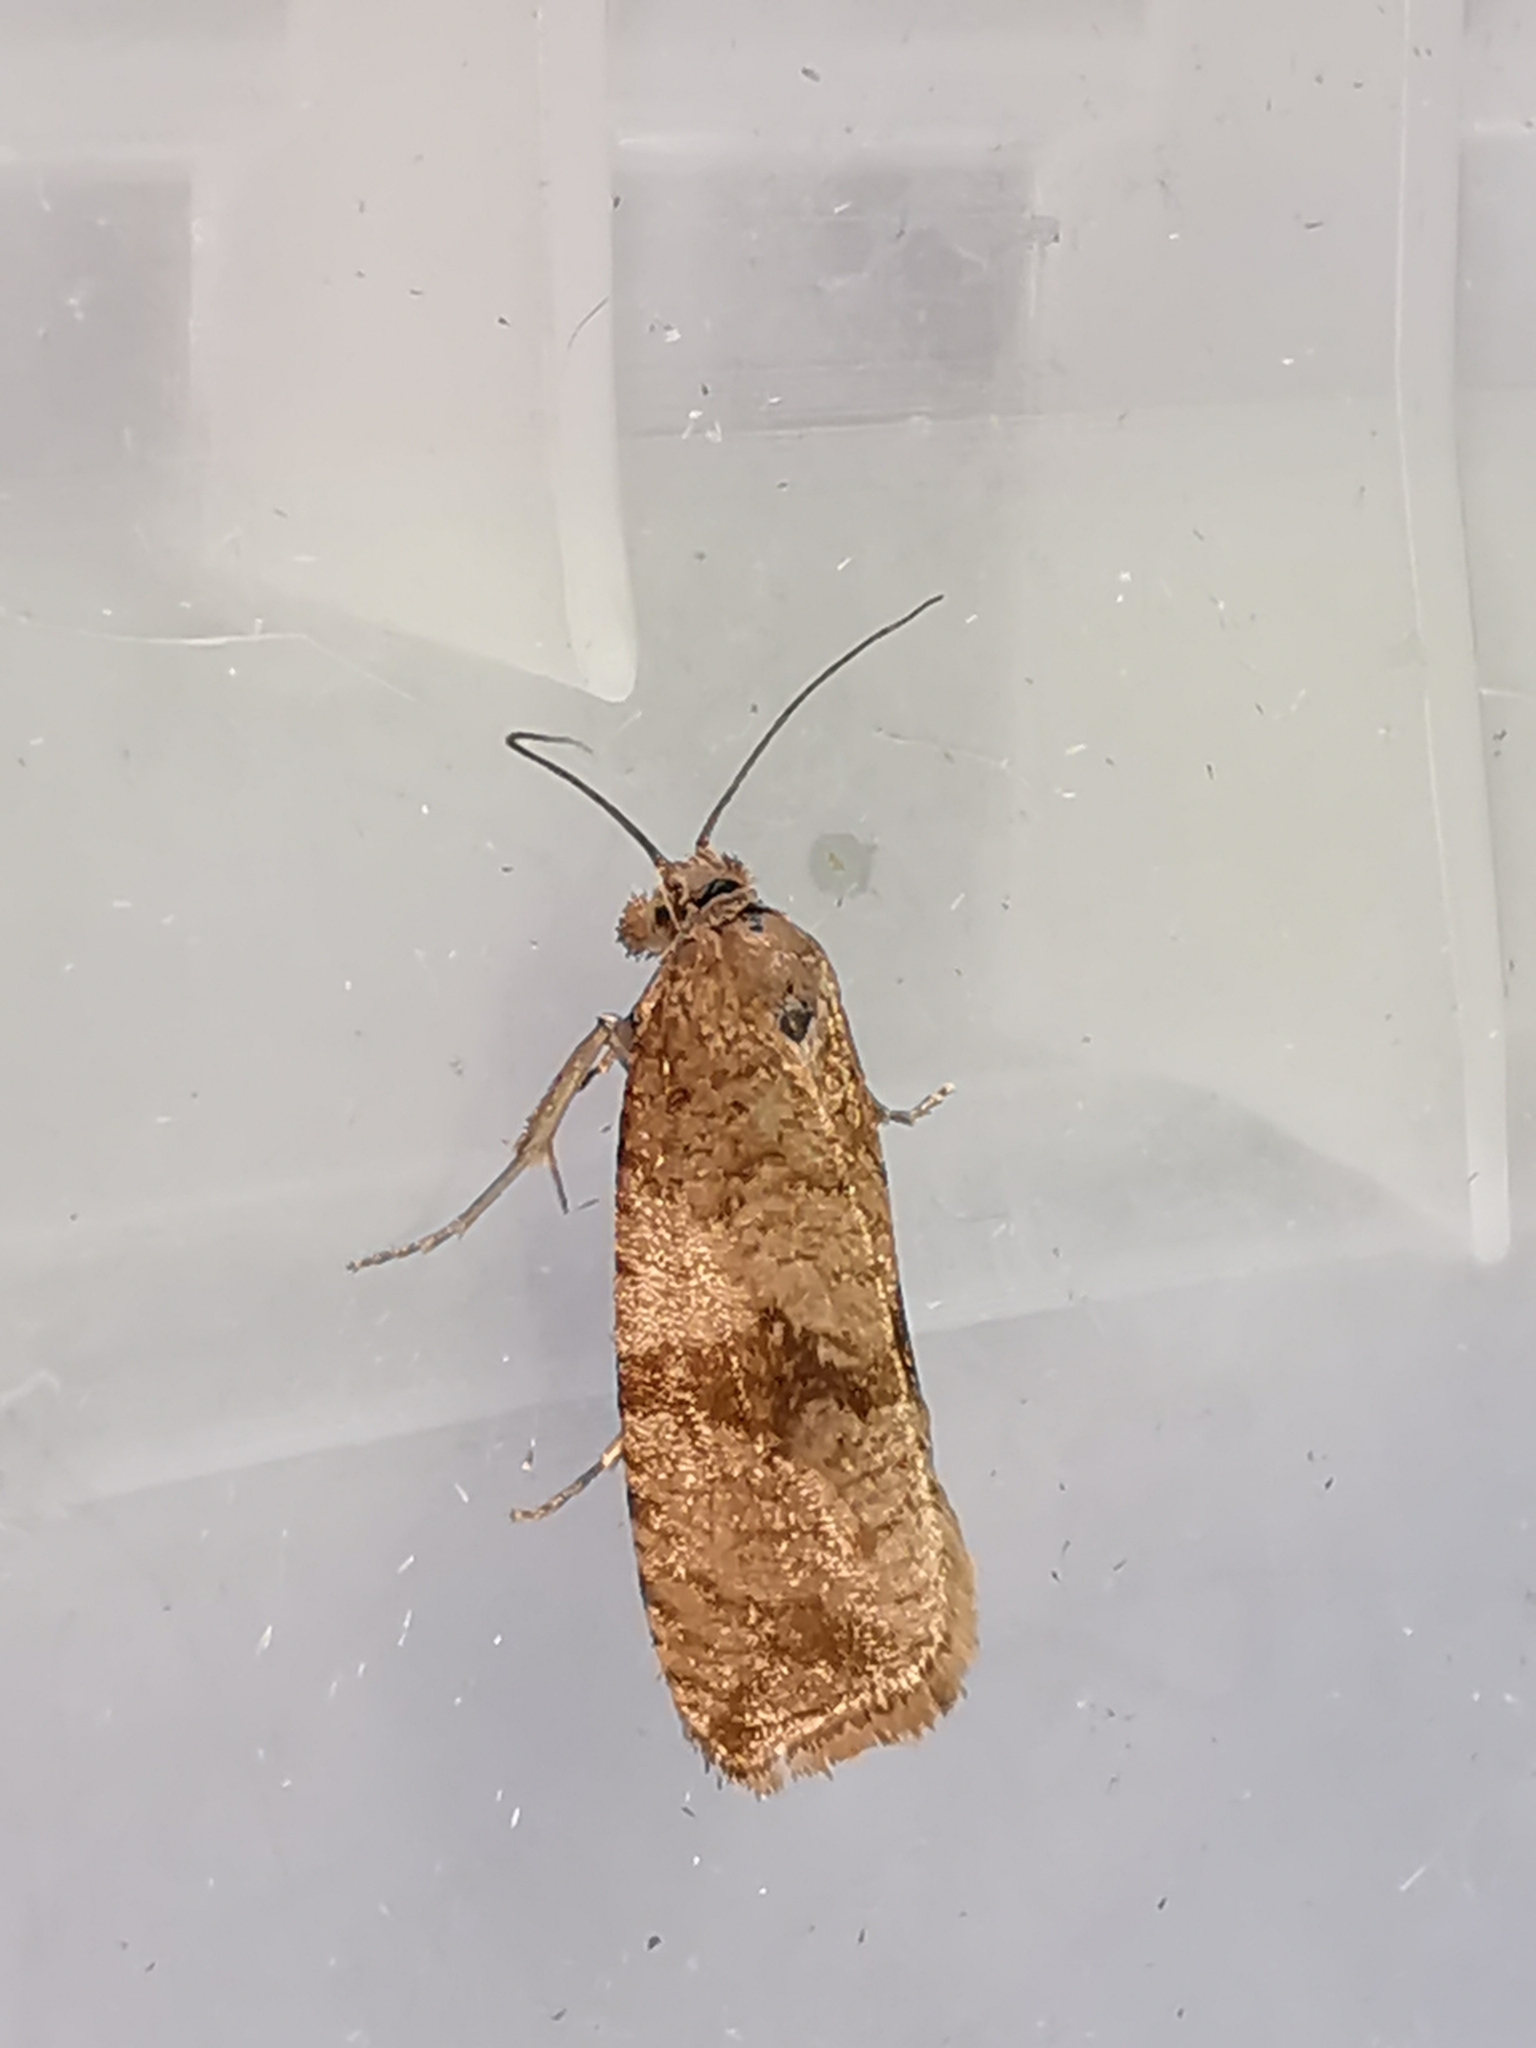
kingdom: Animalia
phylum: Arthropoda
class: Insecta
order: Lepidoptera
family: Tortricidae
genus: Celypha
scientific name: Celypha striana
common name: Barred marble
